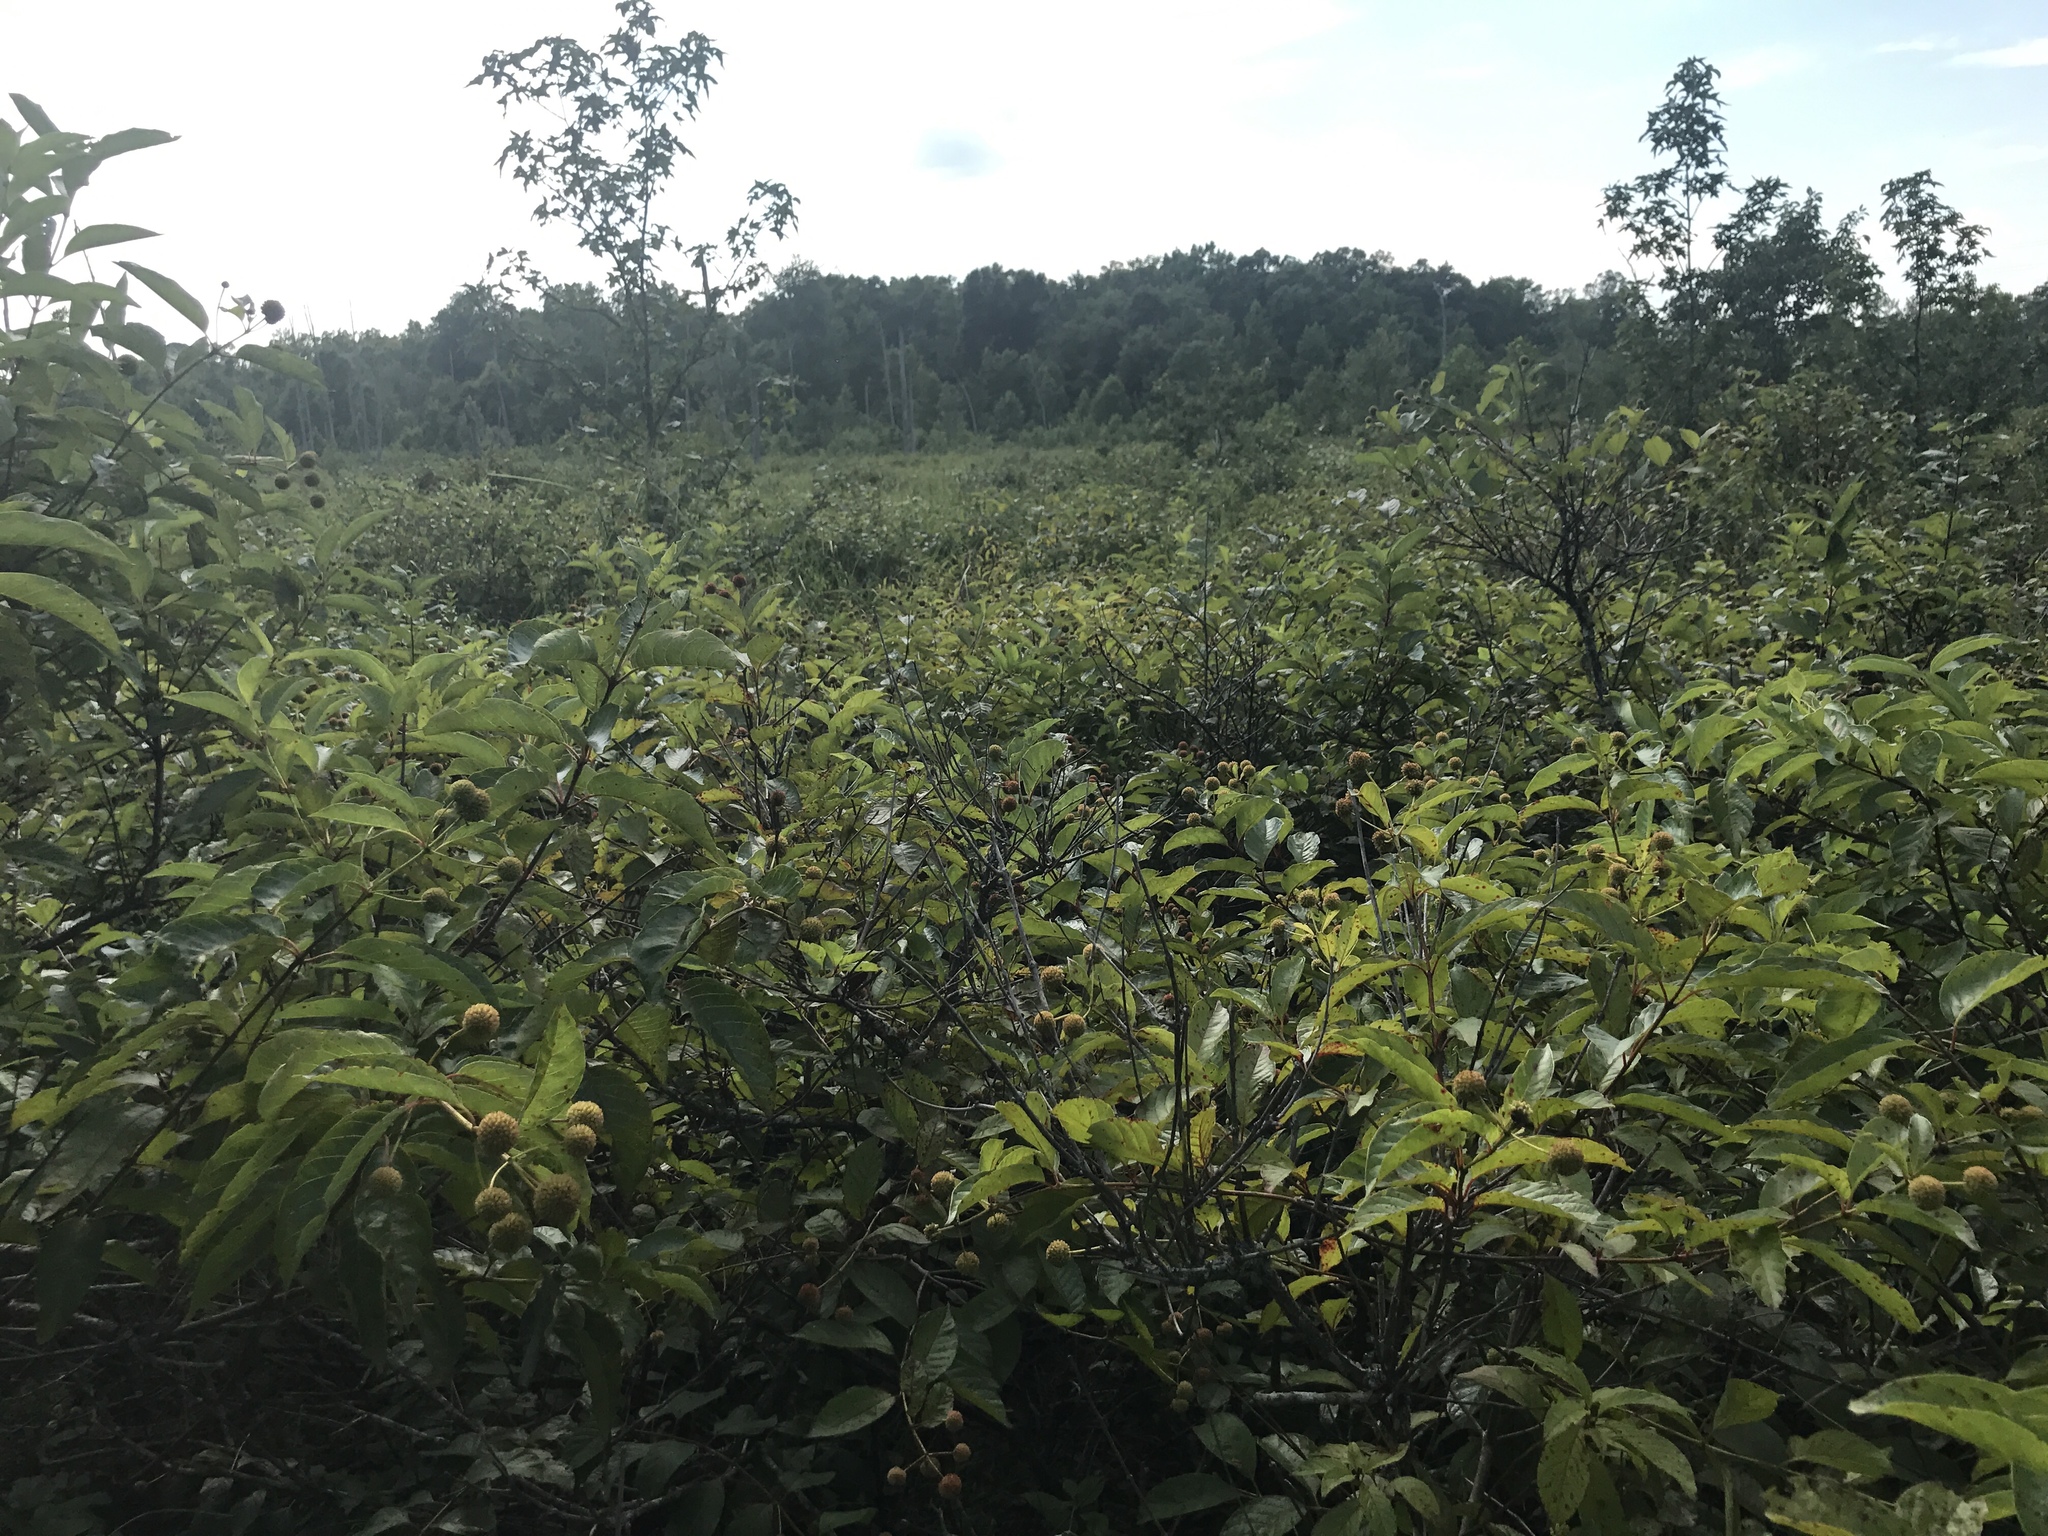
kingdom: Plantae
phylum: Tracheophyta
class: Magnoliopsida
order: Gentianales
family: Rubiaceae
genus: Cephalanthus
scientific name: Cephalanthus occidentalis
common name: Button-willow
